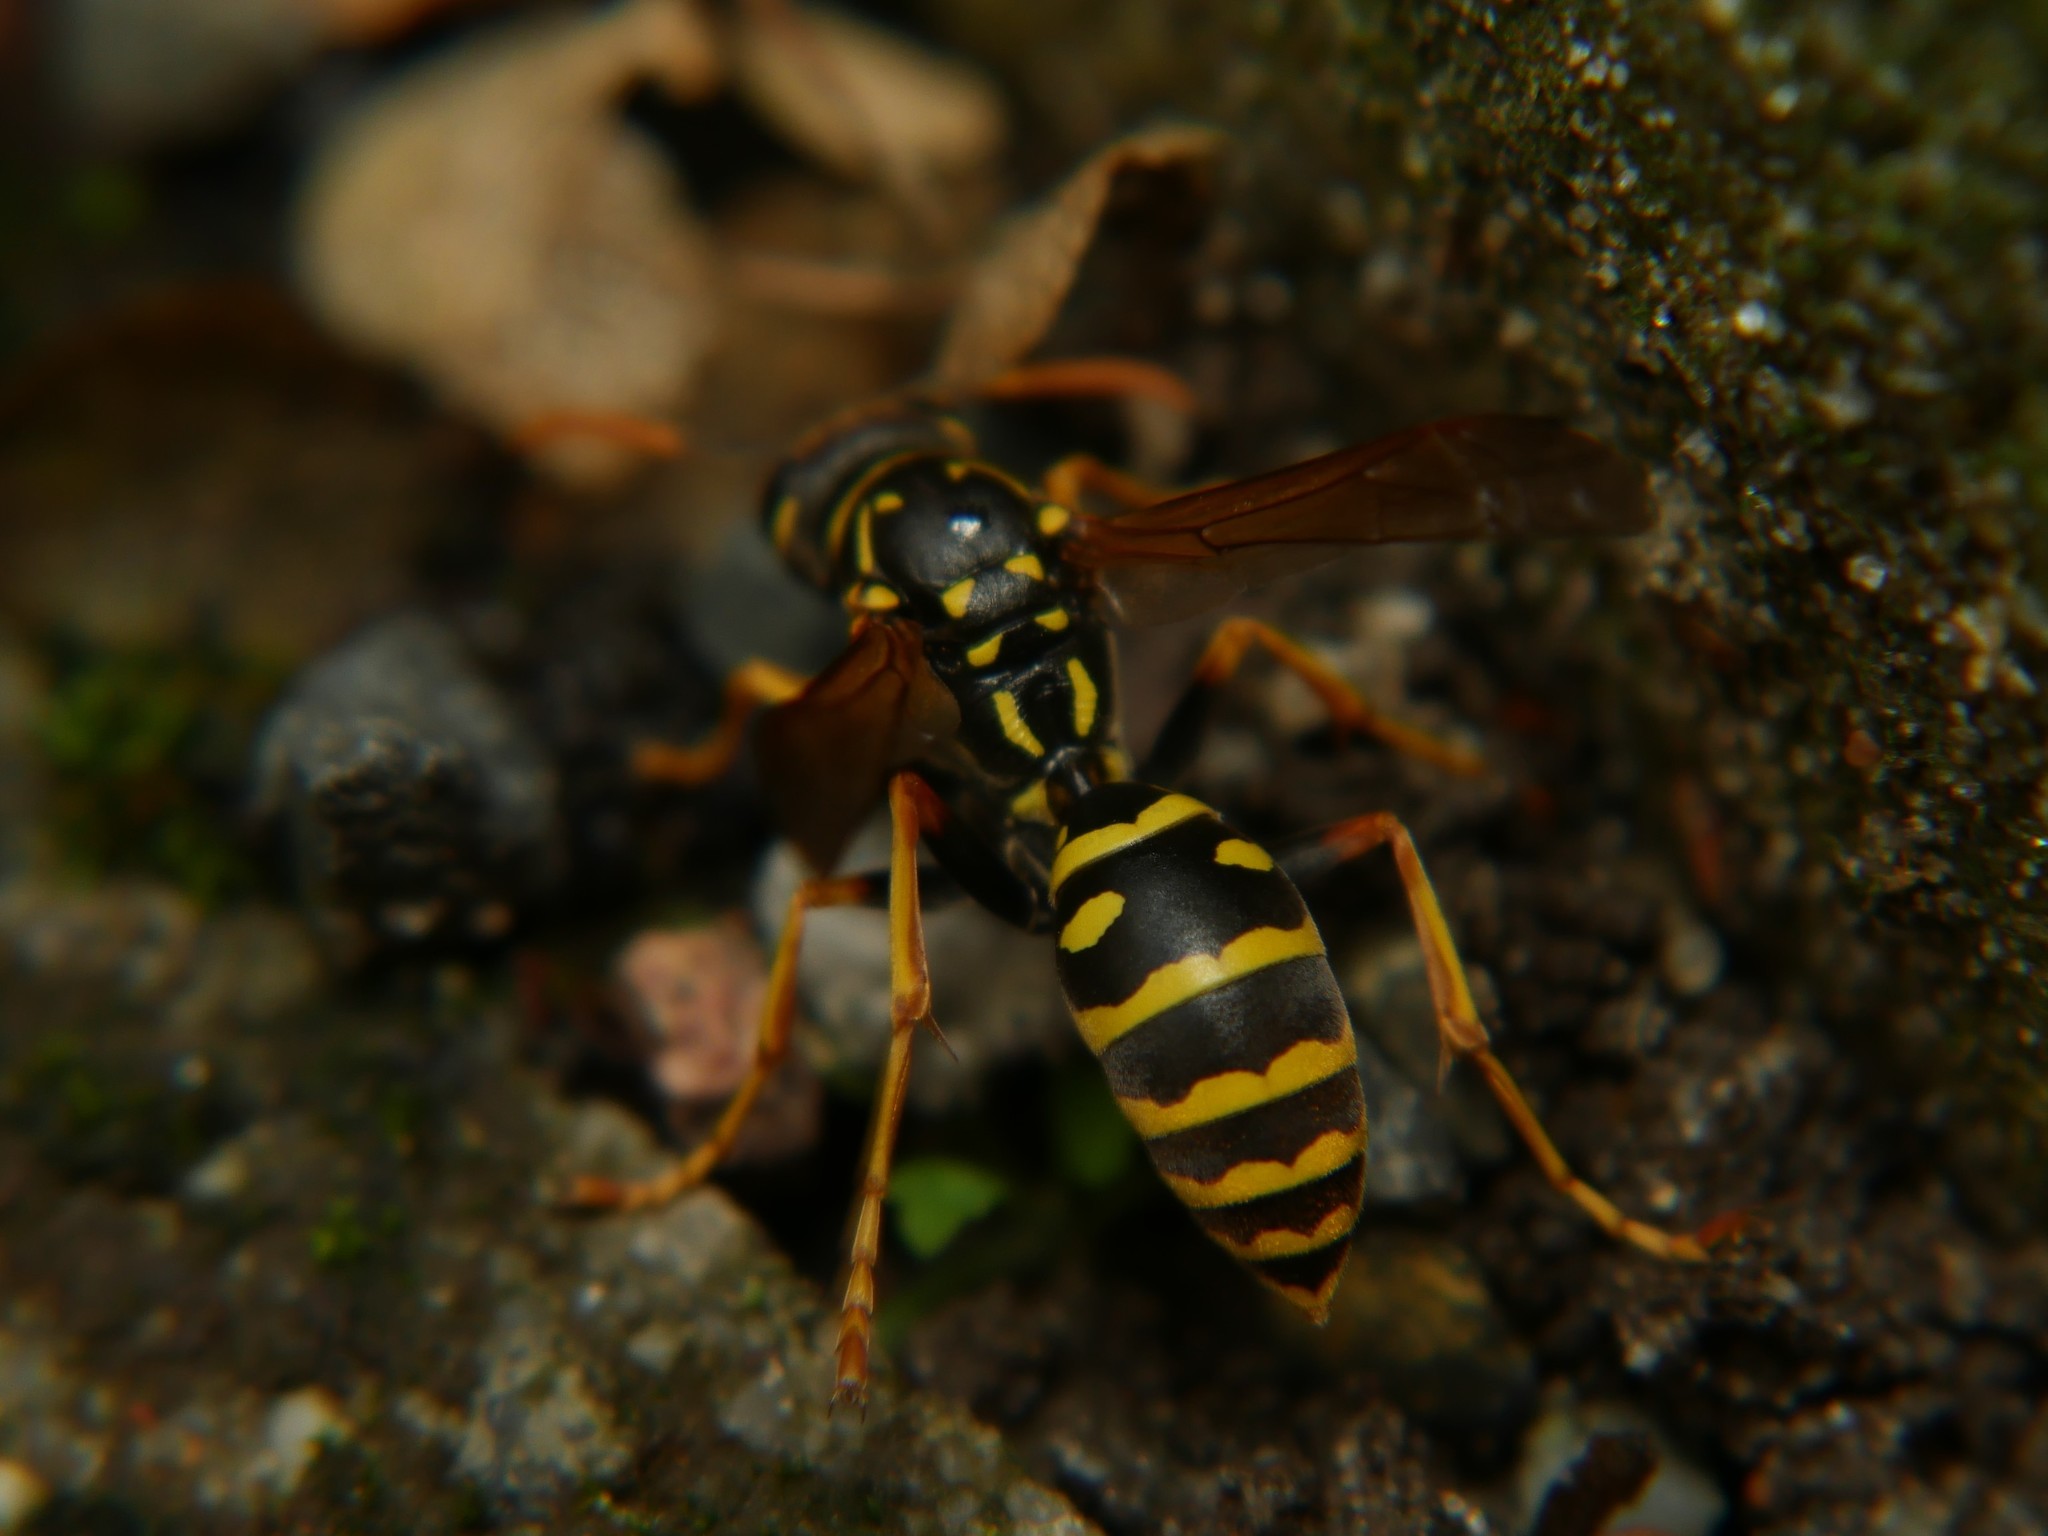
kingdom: Animalia
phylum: Arthropoda
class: Insecta
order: Hymenoptera
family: Eumenidae
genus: Polistes
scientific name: Polistes dominula
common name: Paper wasp
